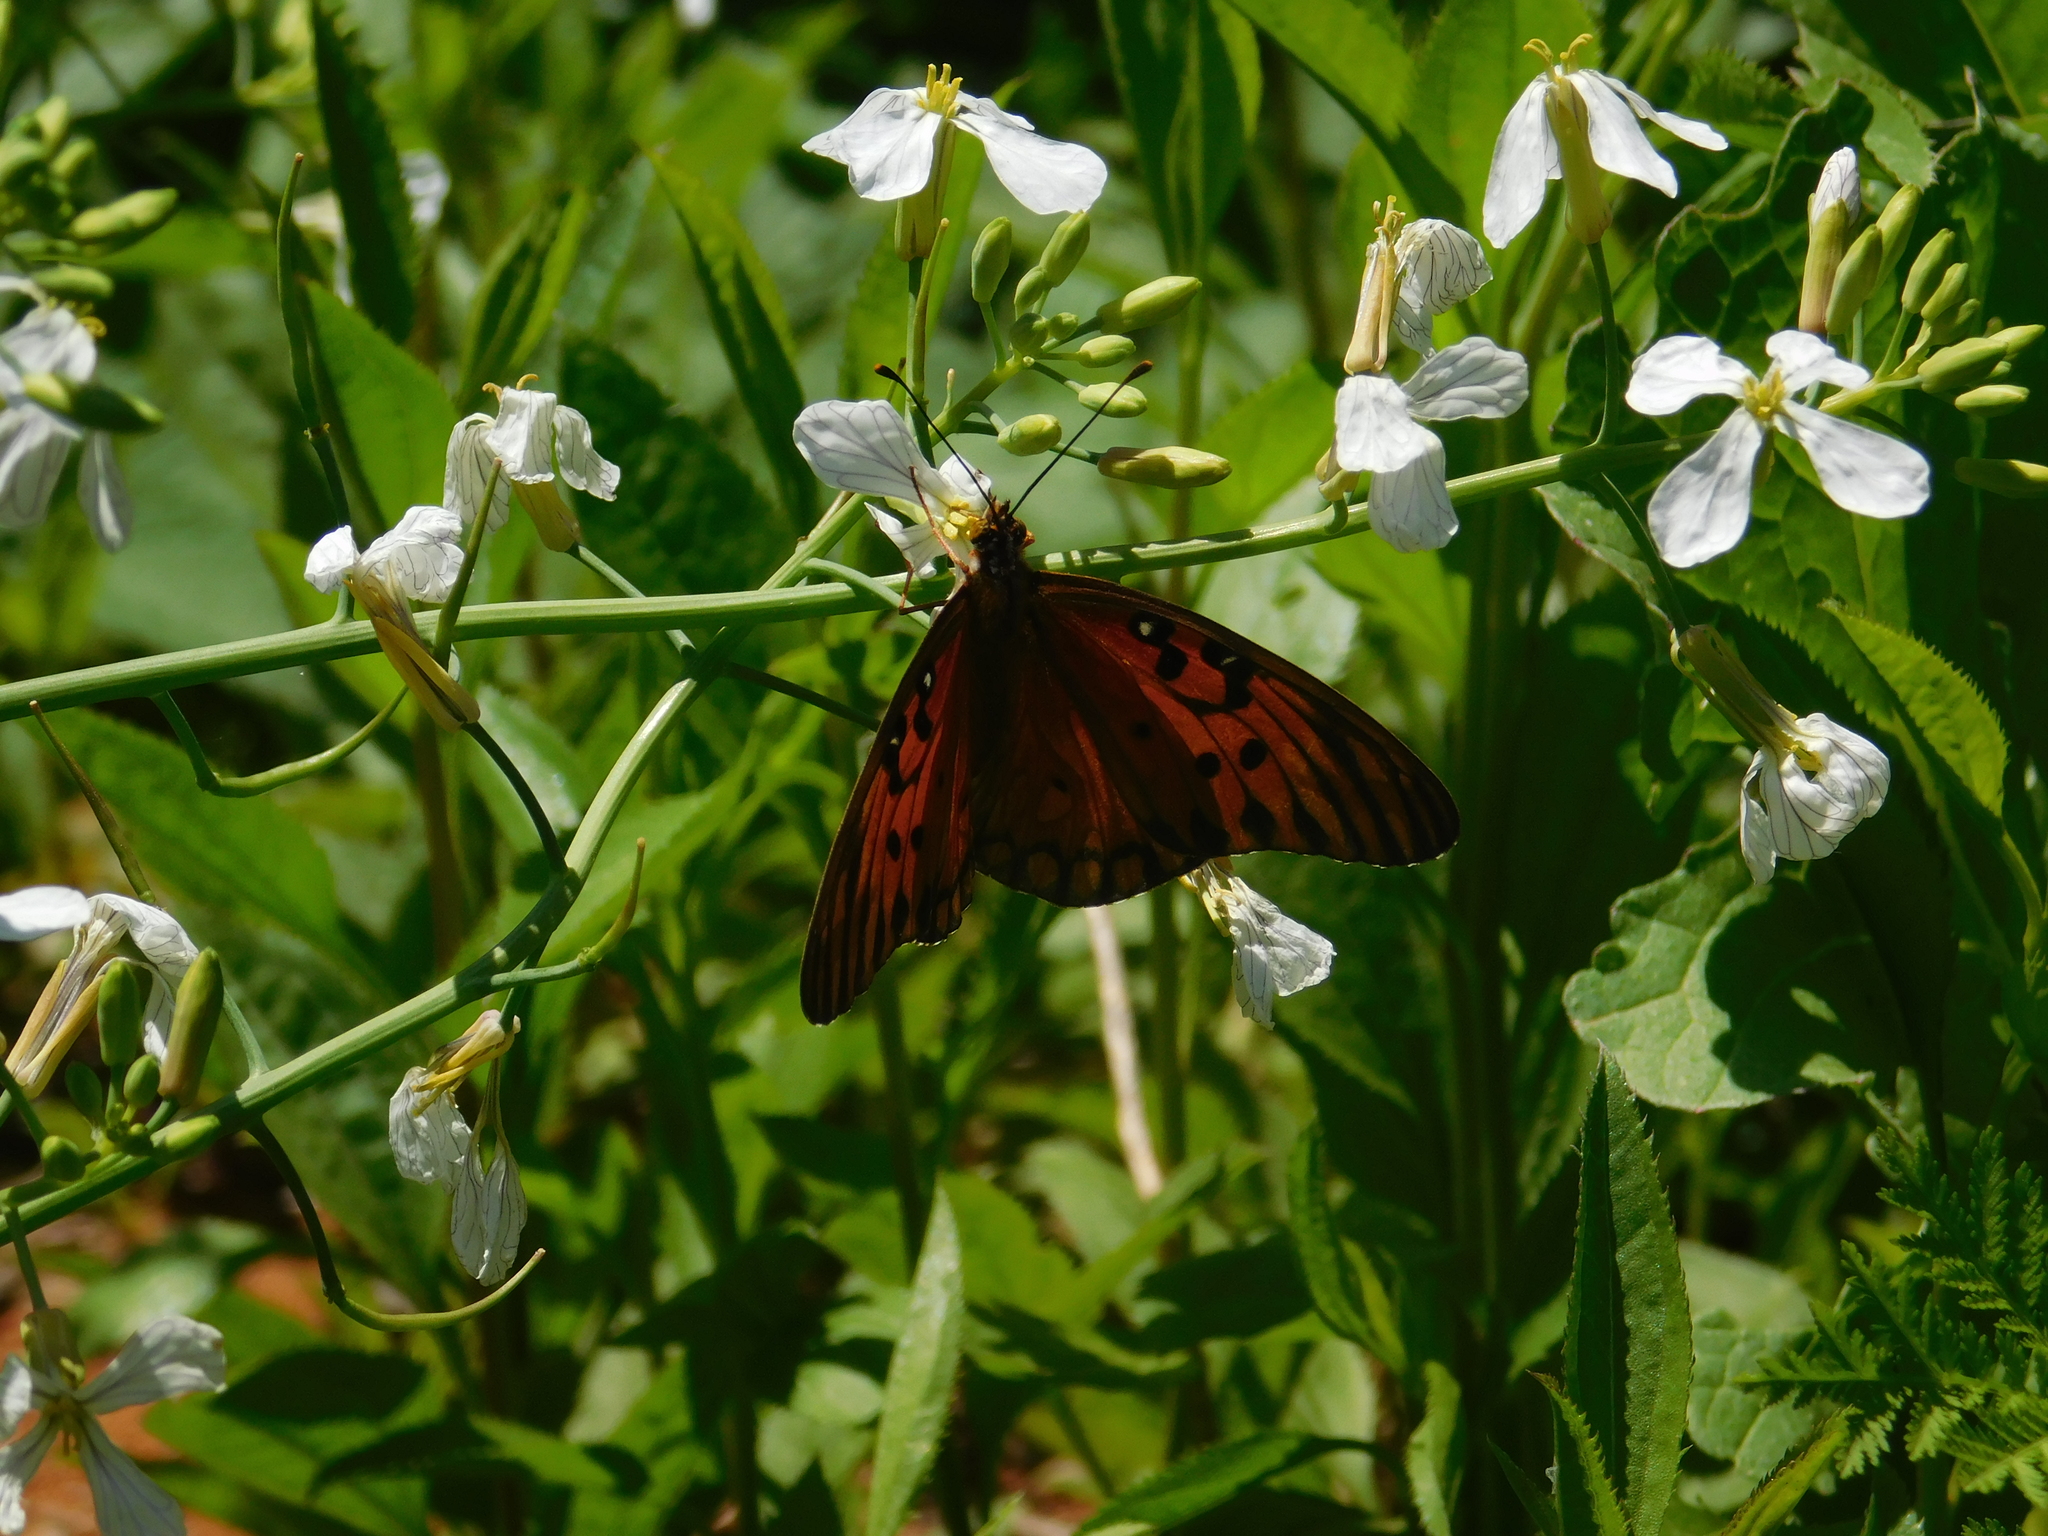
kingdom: Animalia
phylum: Arthropoda
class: Insecta
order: Lepidoptera
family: Nymphalidae
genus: Dione
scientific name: Dione vanillae
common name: Gulf fritillary
